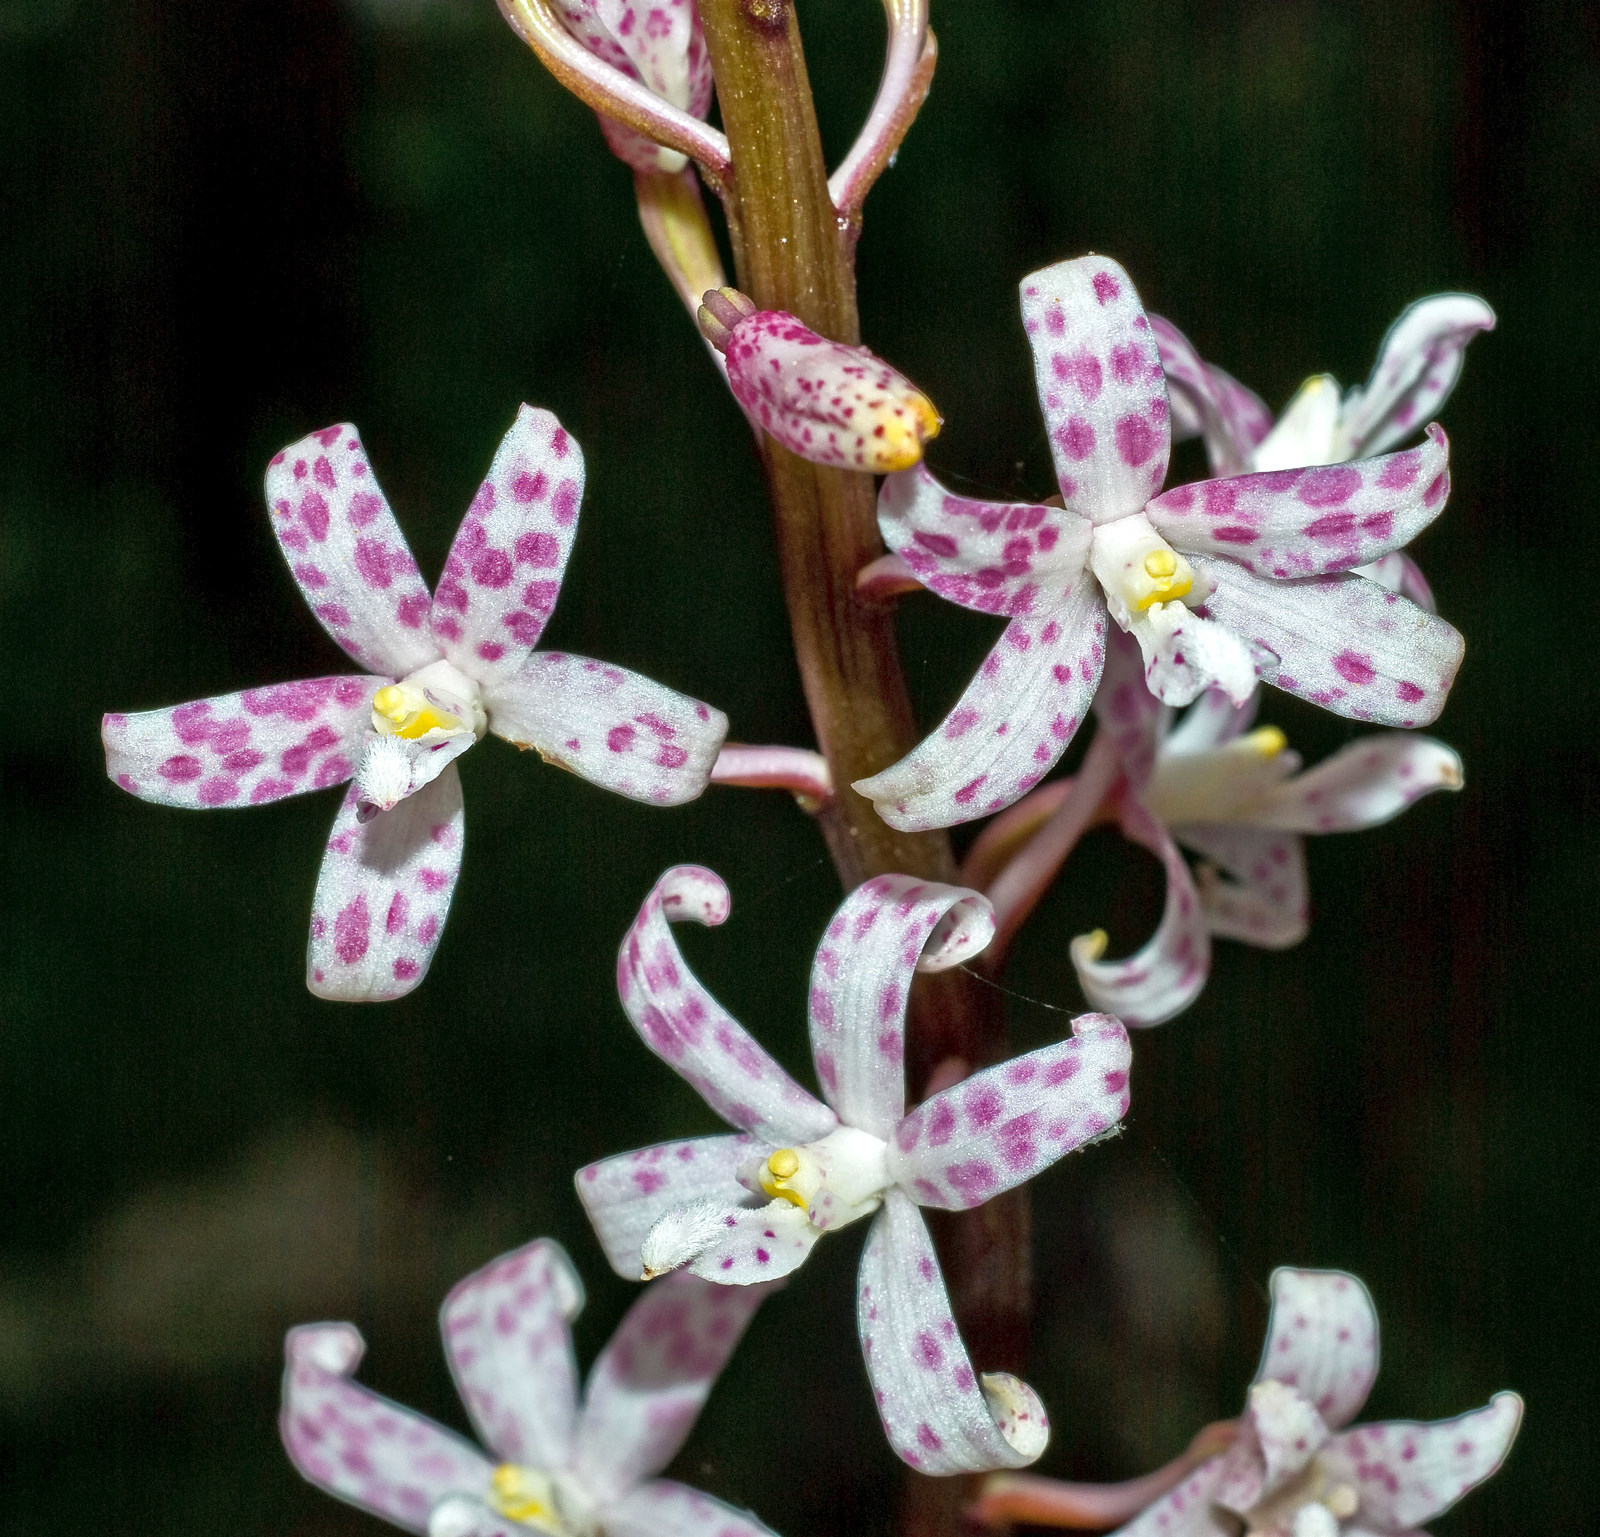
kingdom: Plantae
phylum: Tracheophyta
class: Liliopsida
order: Asparagales
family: Orchidaceae
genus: Dipodium
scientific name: Dipodium pardalinum
